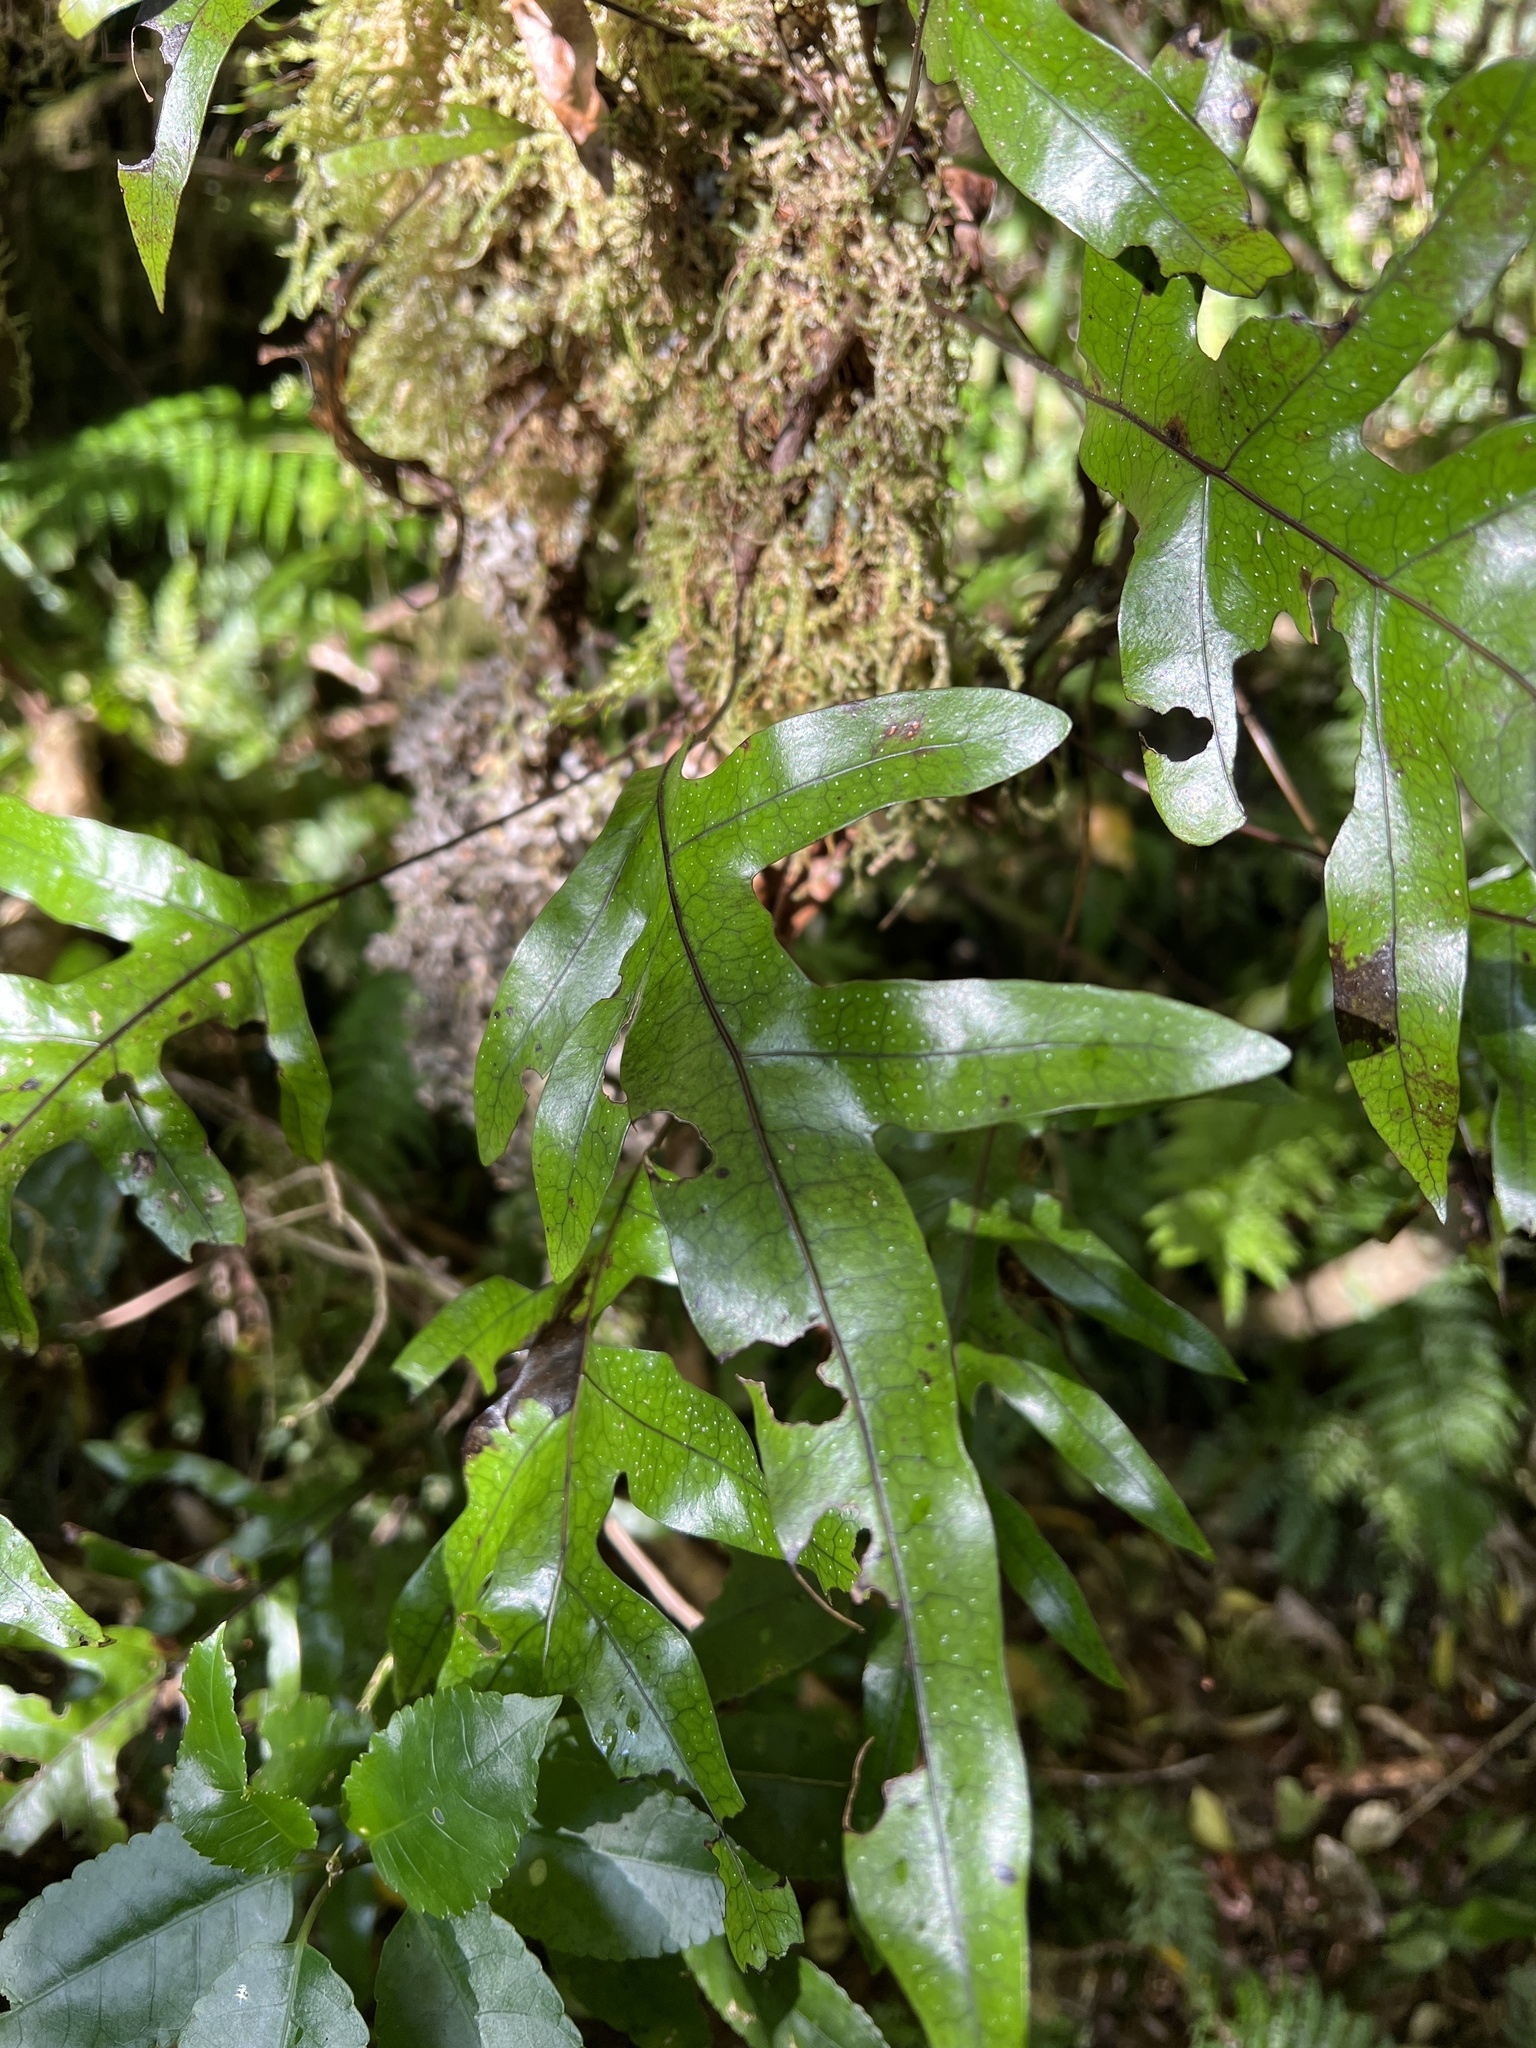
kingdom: Plantae
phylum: Tracheophyta
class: Polypodiopsida
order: Polypodiales
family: Polypodiaceae
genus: Lecanopteris
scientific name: Lecanopteris pustulata
